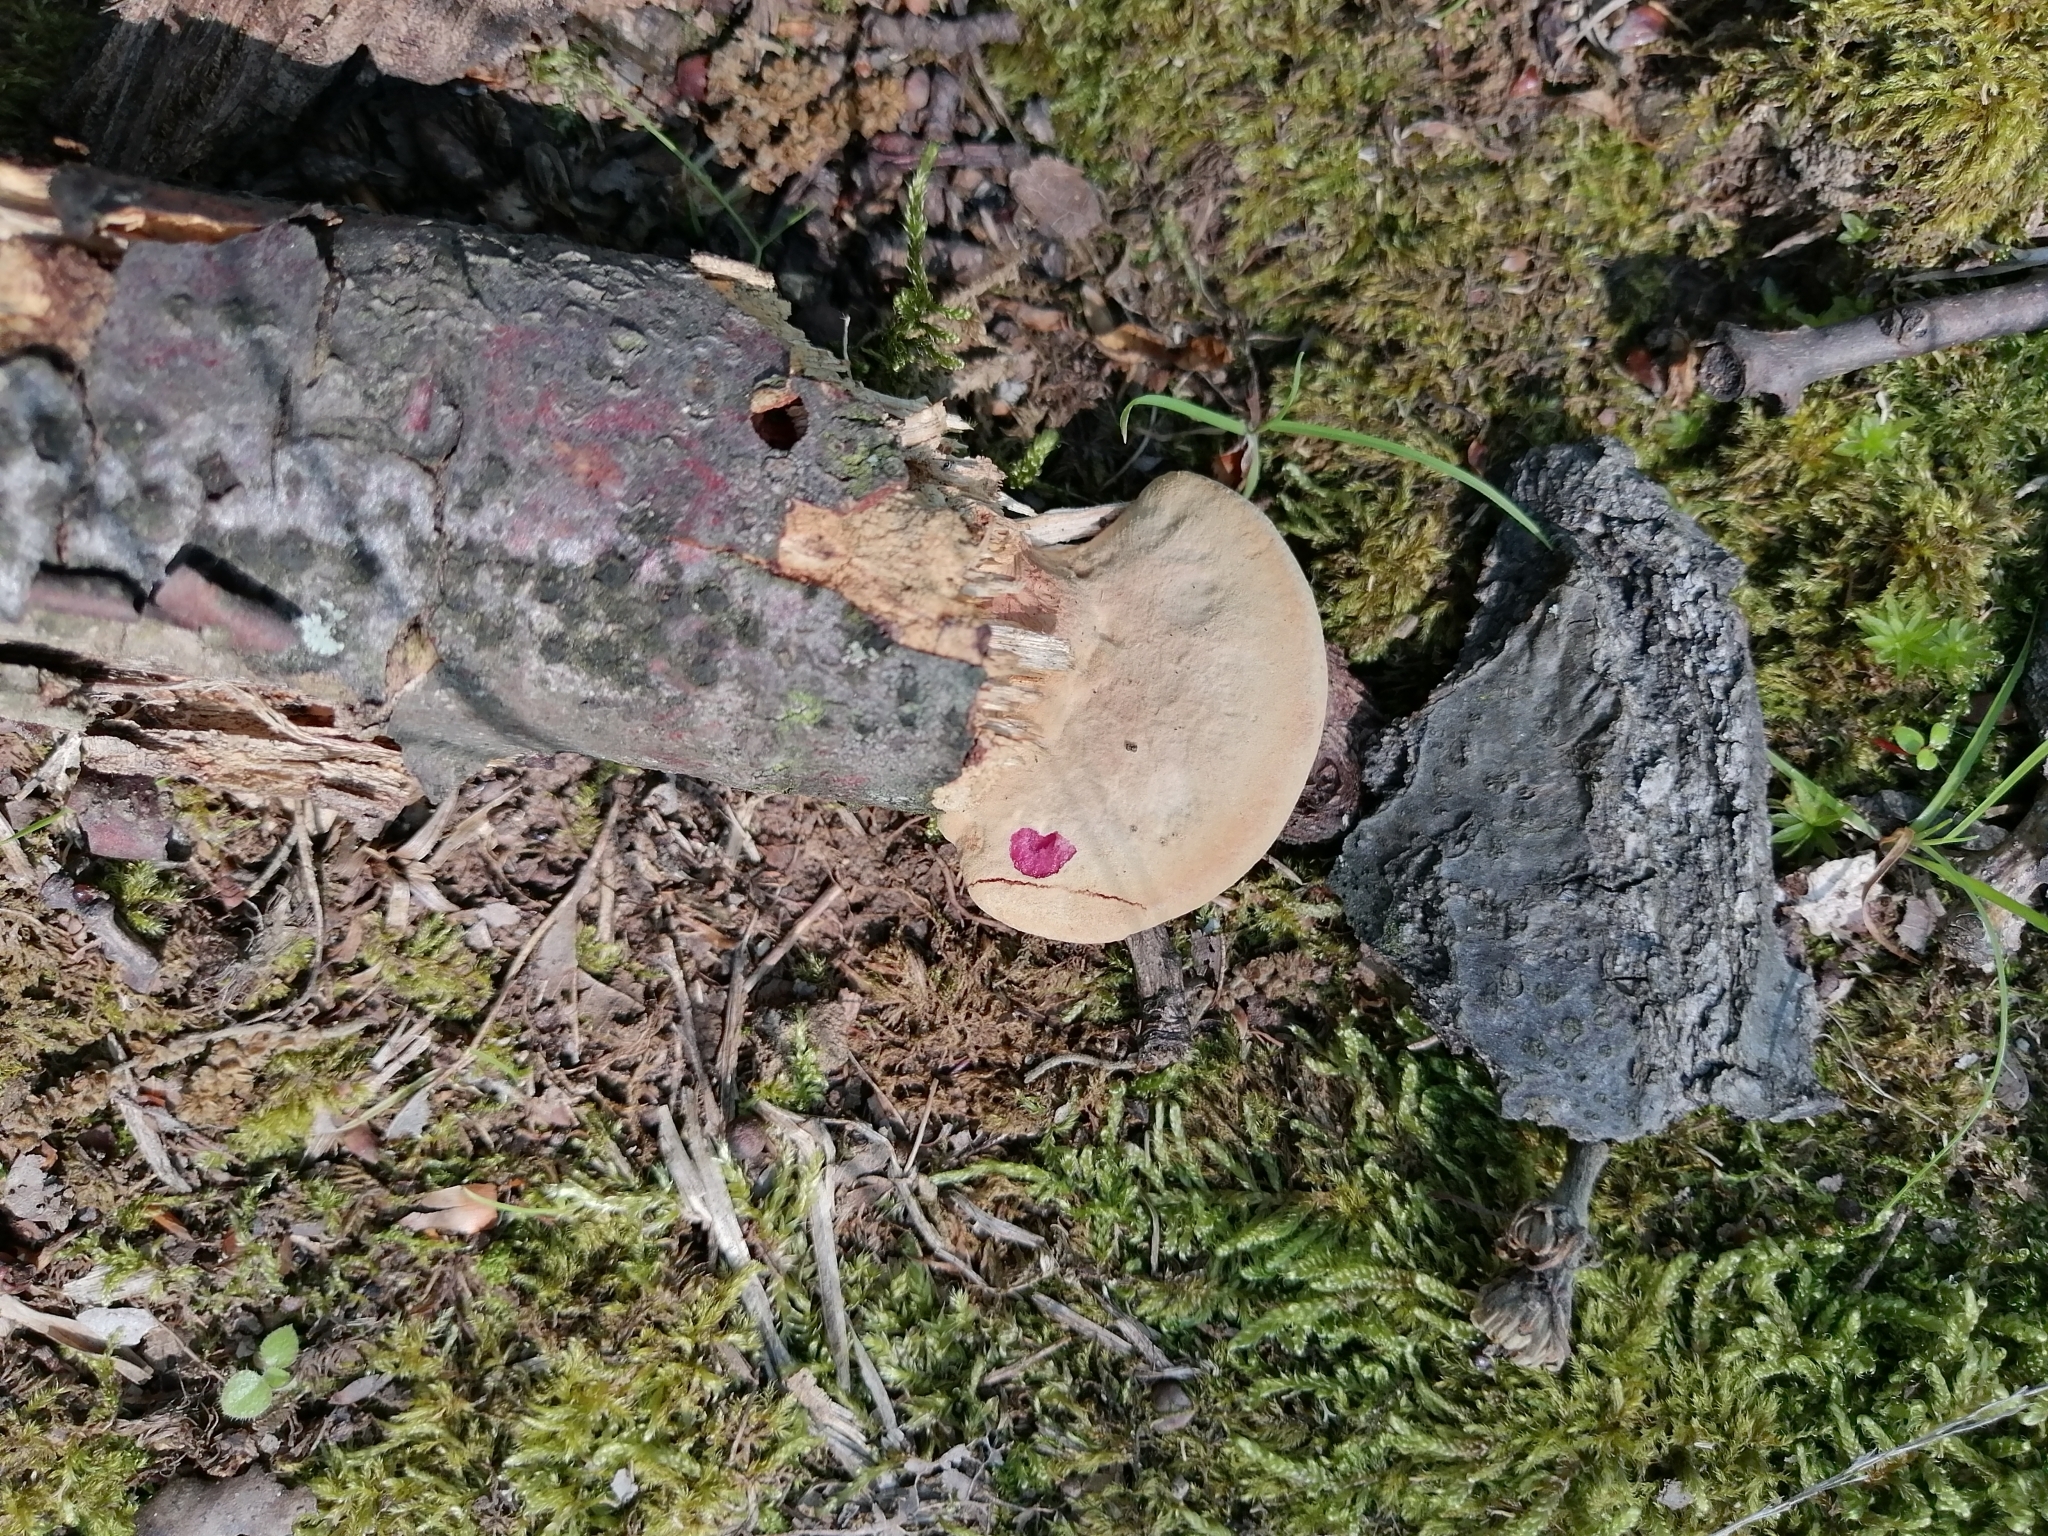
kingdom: Fungi
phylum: Basidiomycota
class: Agaricomycetes
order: Polyporales
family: Phanerochaetaceae
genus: Hapalopilus
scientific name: Hapalopilus rutilans
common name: Tender nesting polypore
